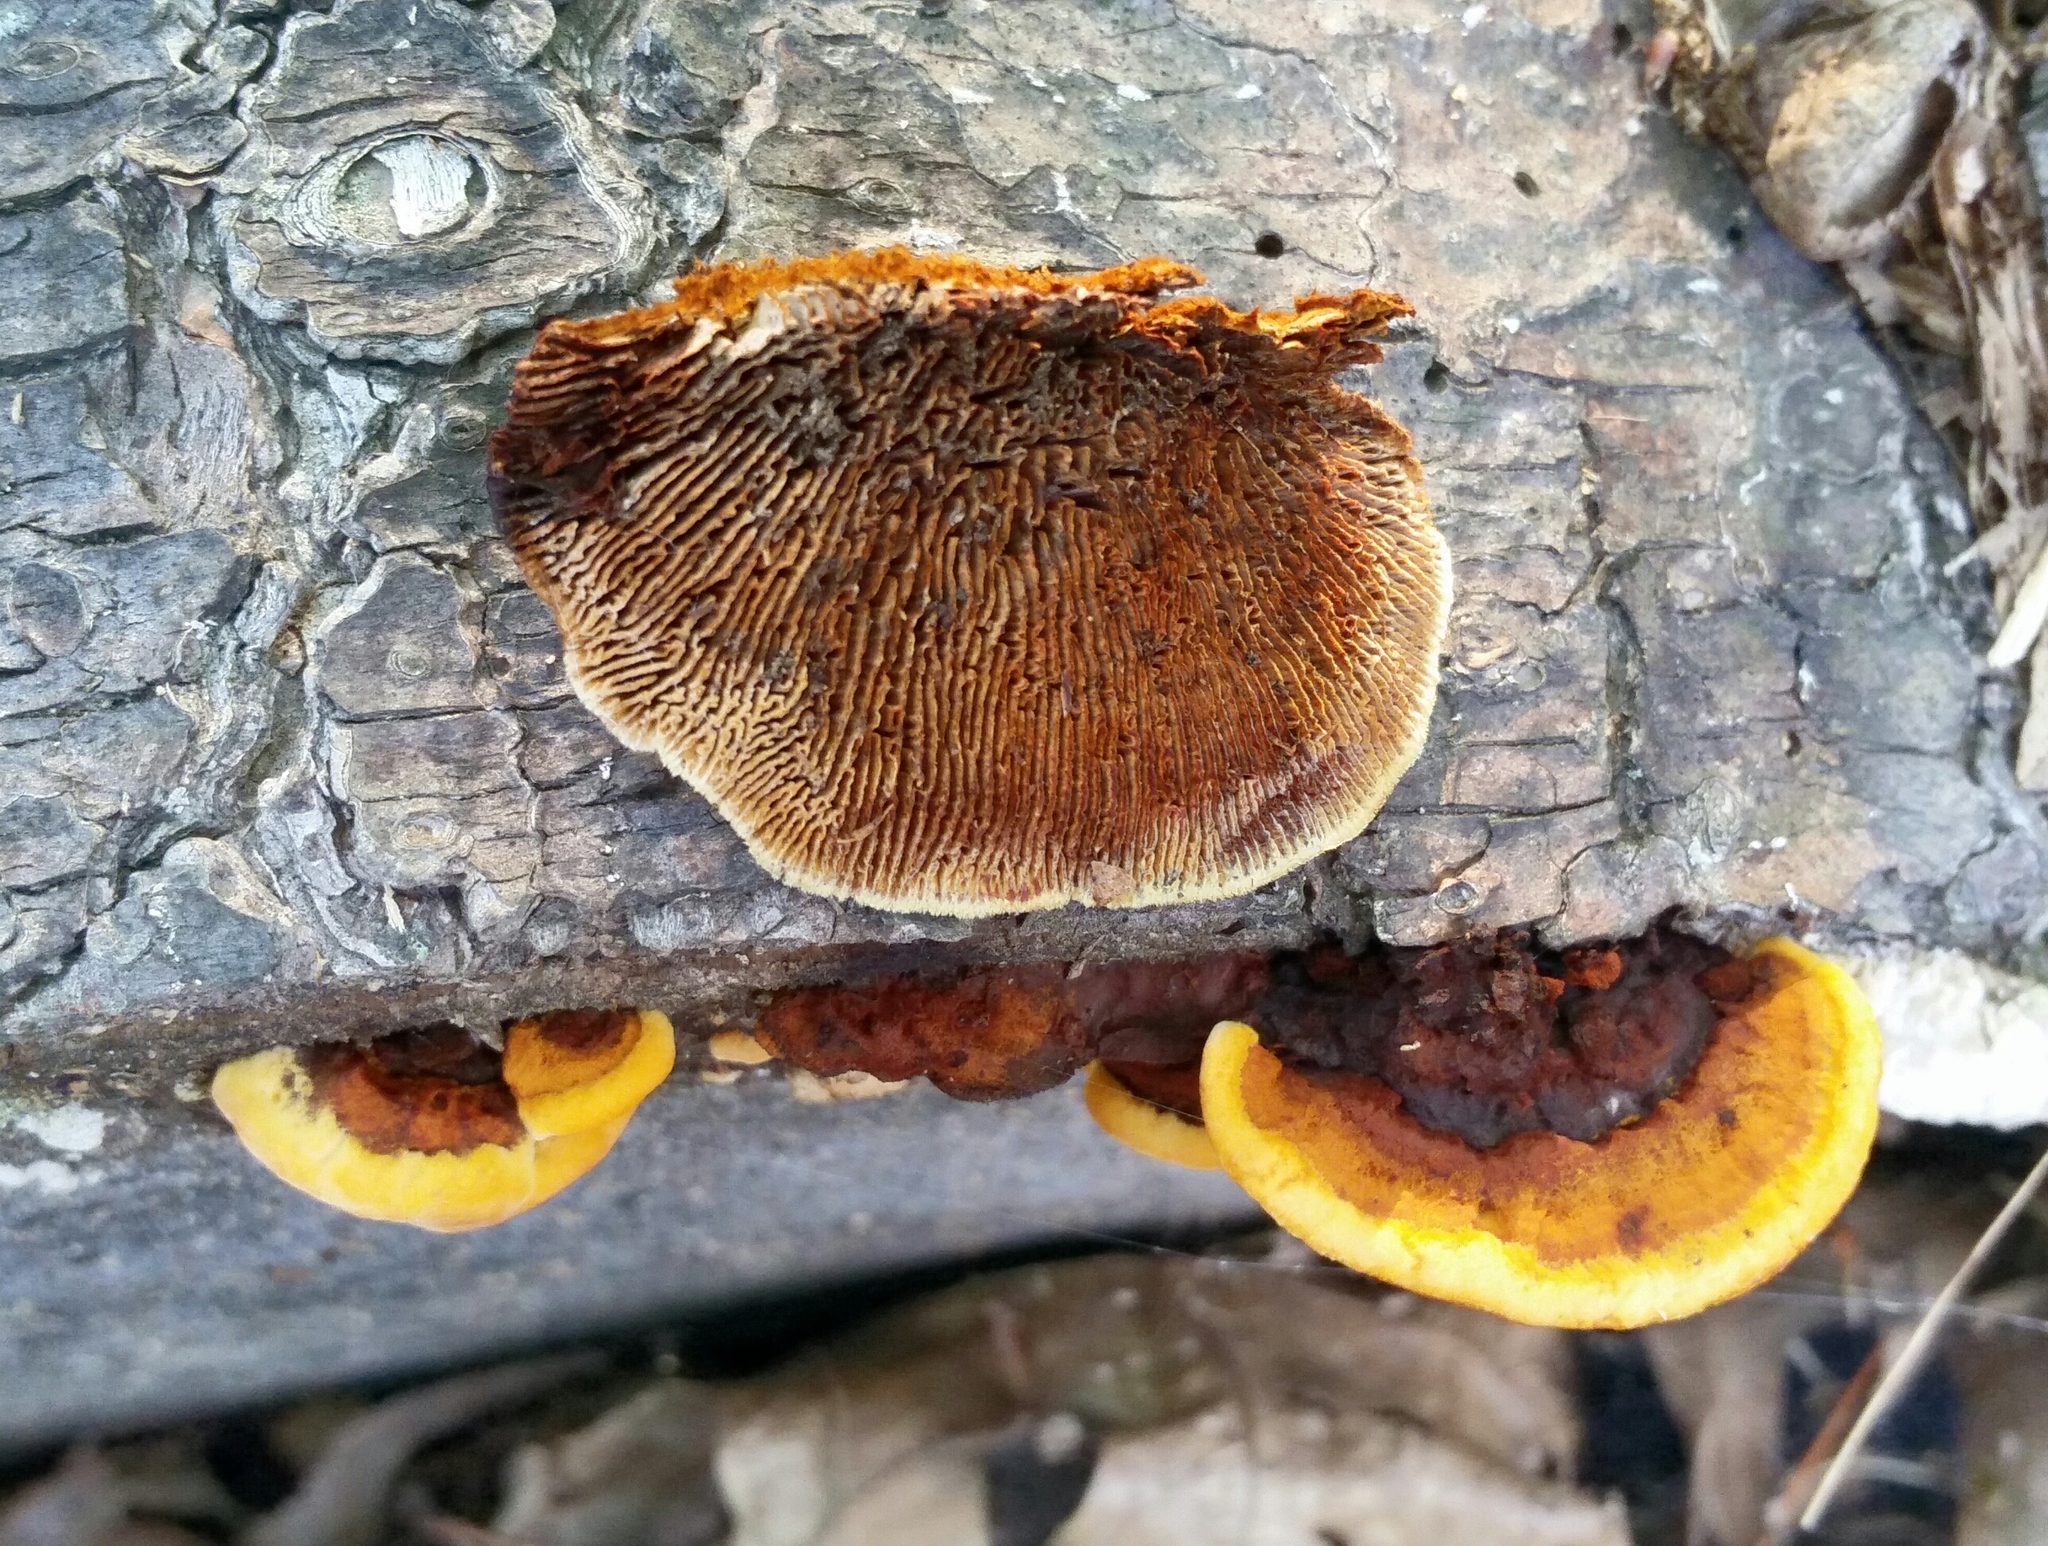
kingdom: Fungi
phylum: Basidiomycota
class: Agaricomycetes
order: Gloeophyllales
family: Gloeophyllaceae
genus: Gloeophyllum
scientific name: Gloeophyllum sepiarium
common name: Conifer mazegill
